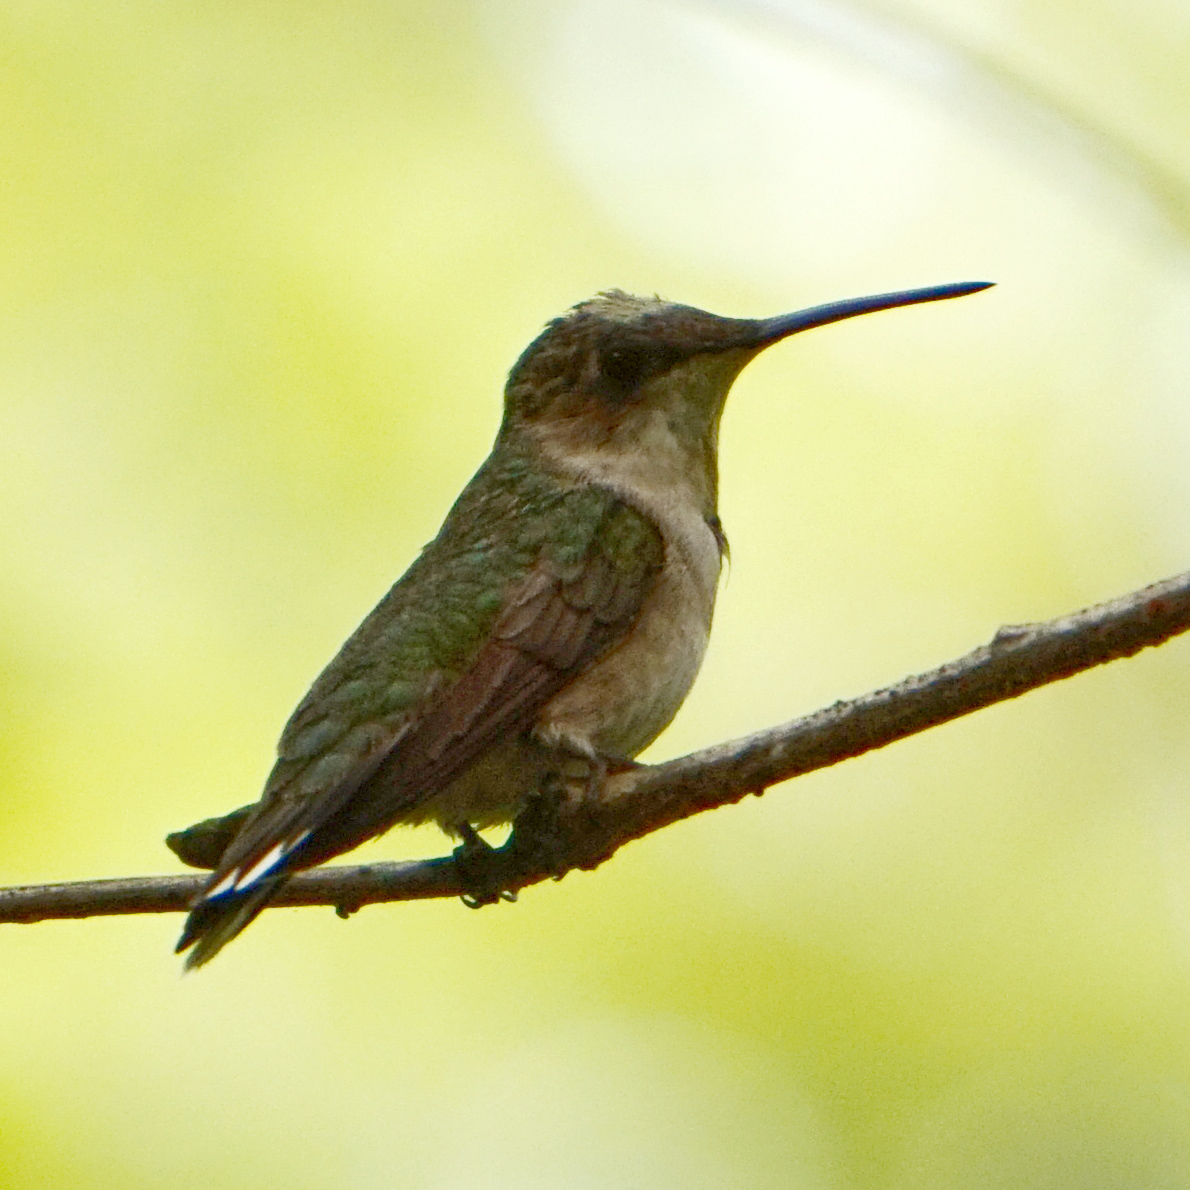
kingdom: Animalia
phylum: Chordata
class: Aves
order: Apodiformes
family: Trochilidae
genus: Archilochus
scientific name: Archilochus colubris
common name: Ruby-throated hummingbird
